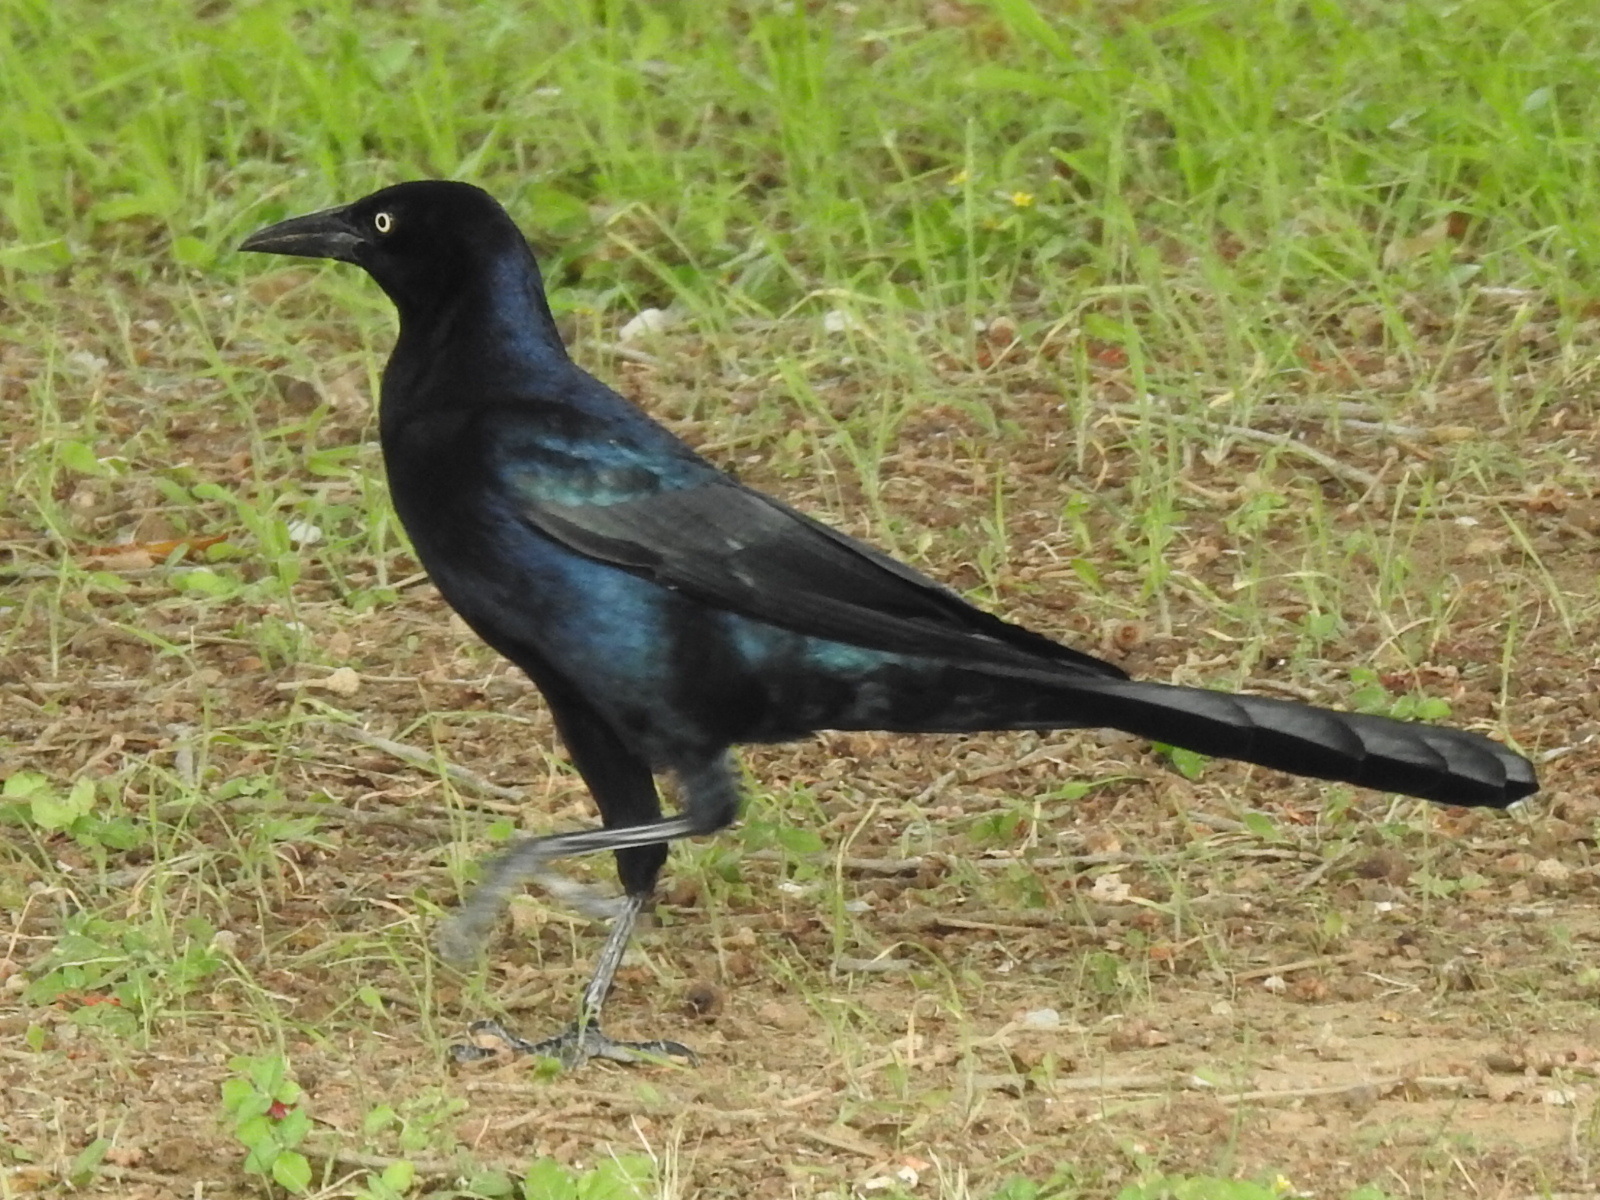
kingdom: Animalia
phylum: Chordata
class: Aves
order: Passeriformes
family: Icteridae
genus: Quiscalus
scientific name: Quiscalus mexicanus
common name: Great-tailed grackle
